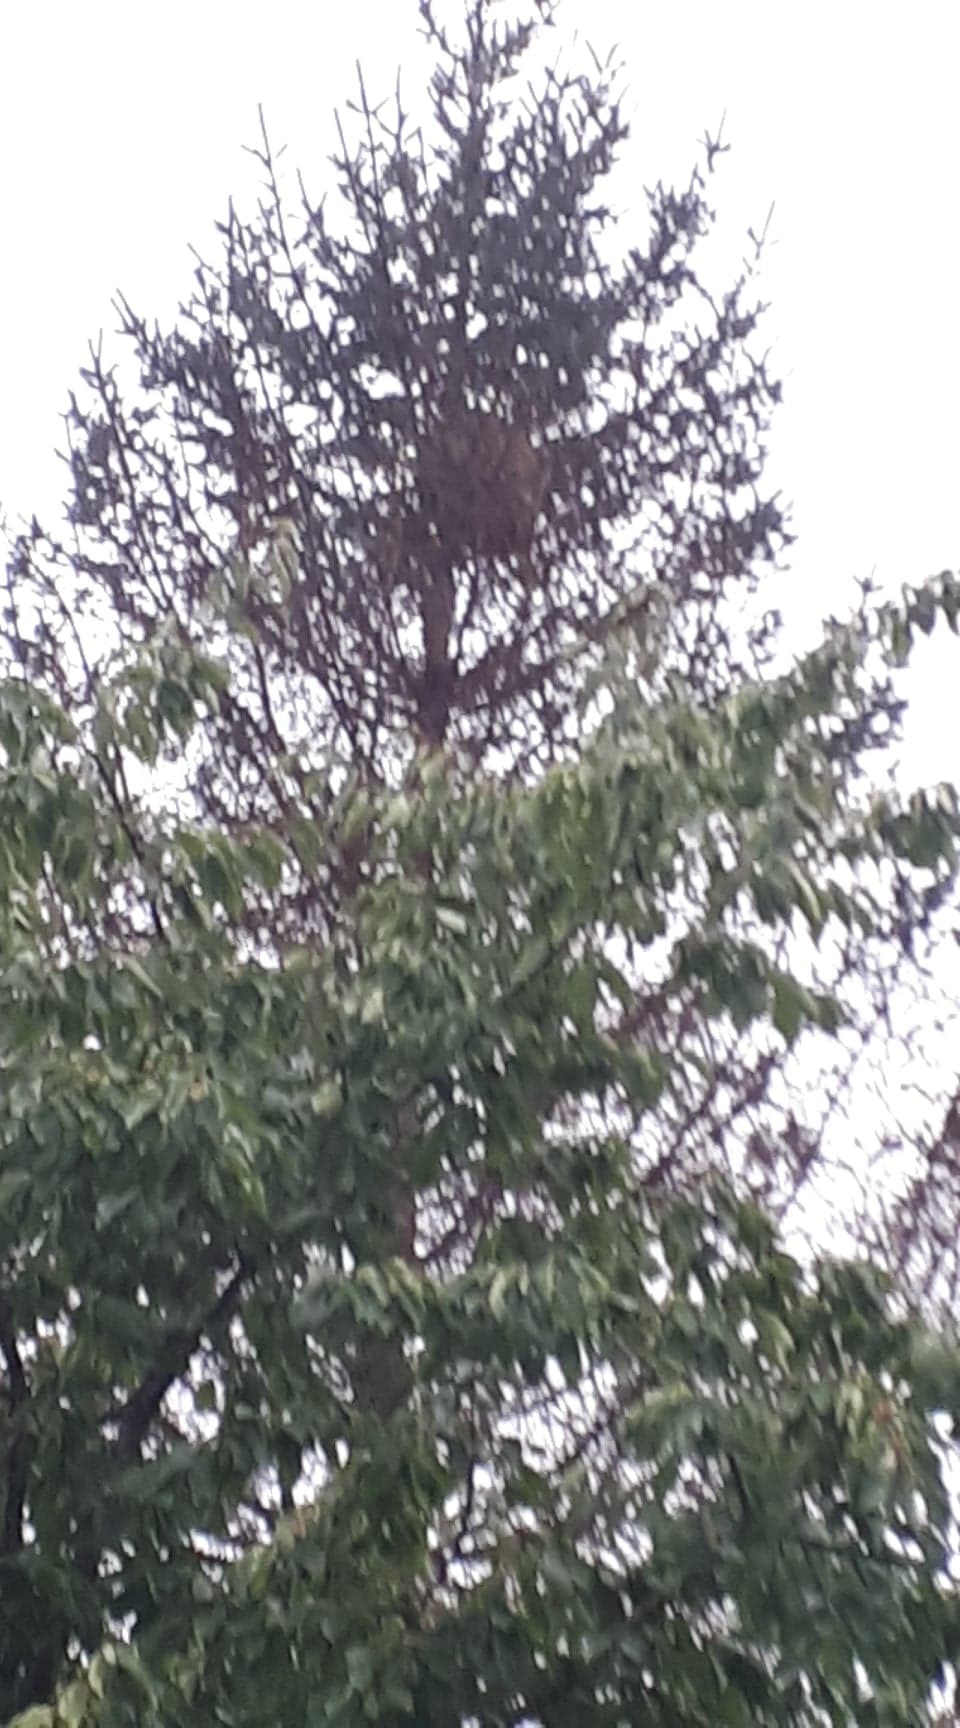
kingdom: Animalia
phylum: Arthropoda
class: Insecta
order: Hymenoptera
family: Vespidae
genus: Vespa
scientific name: Vespa velutina
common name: Asian hornet
